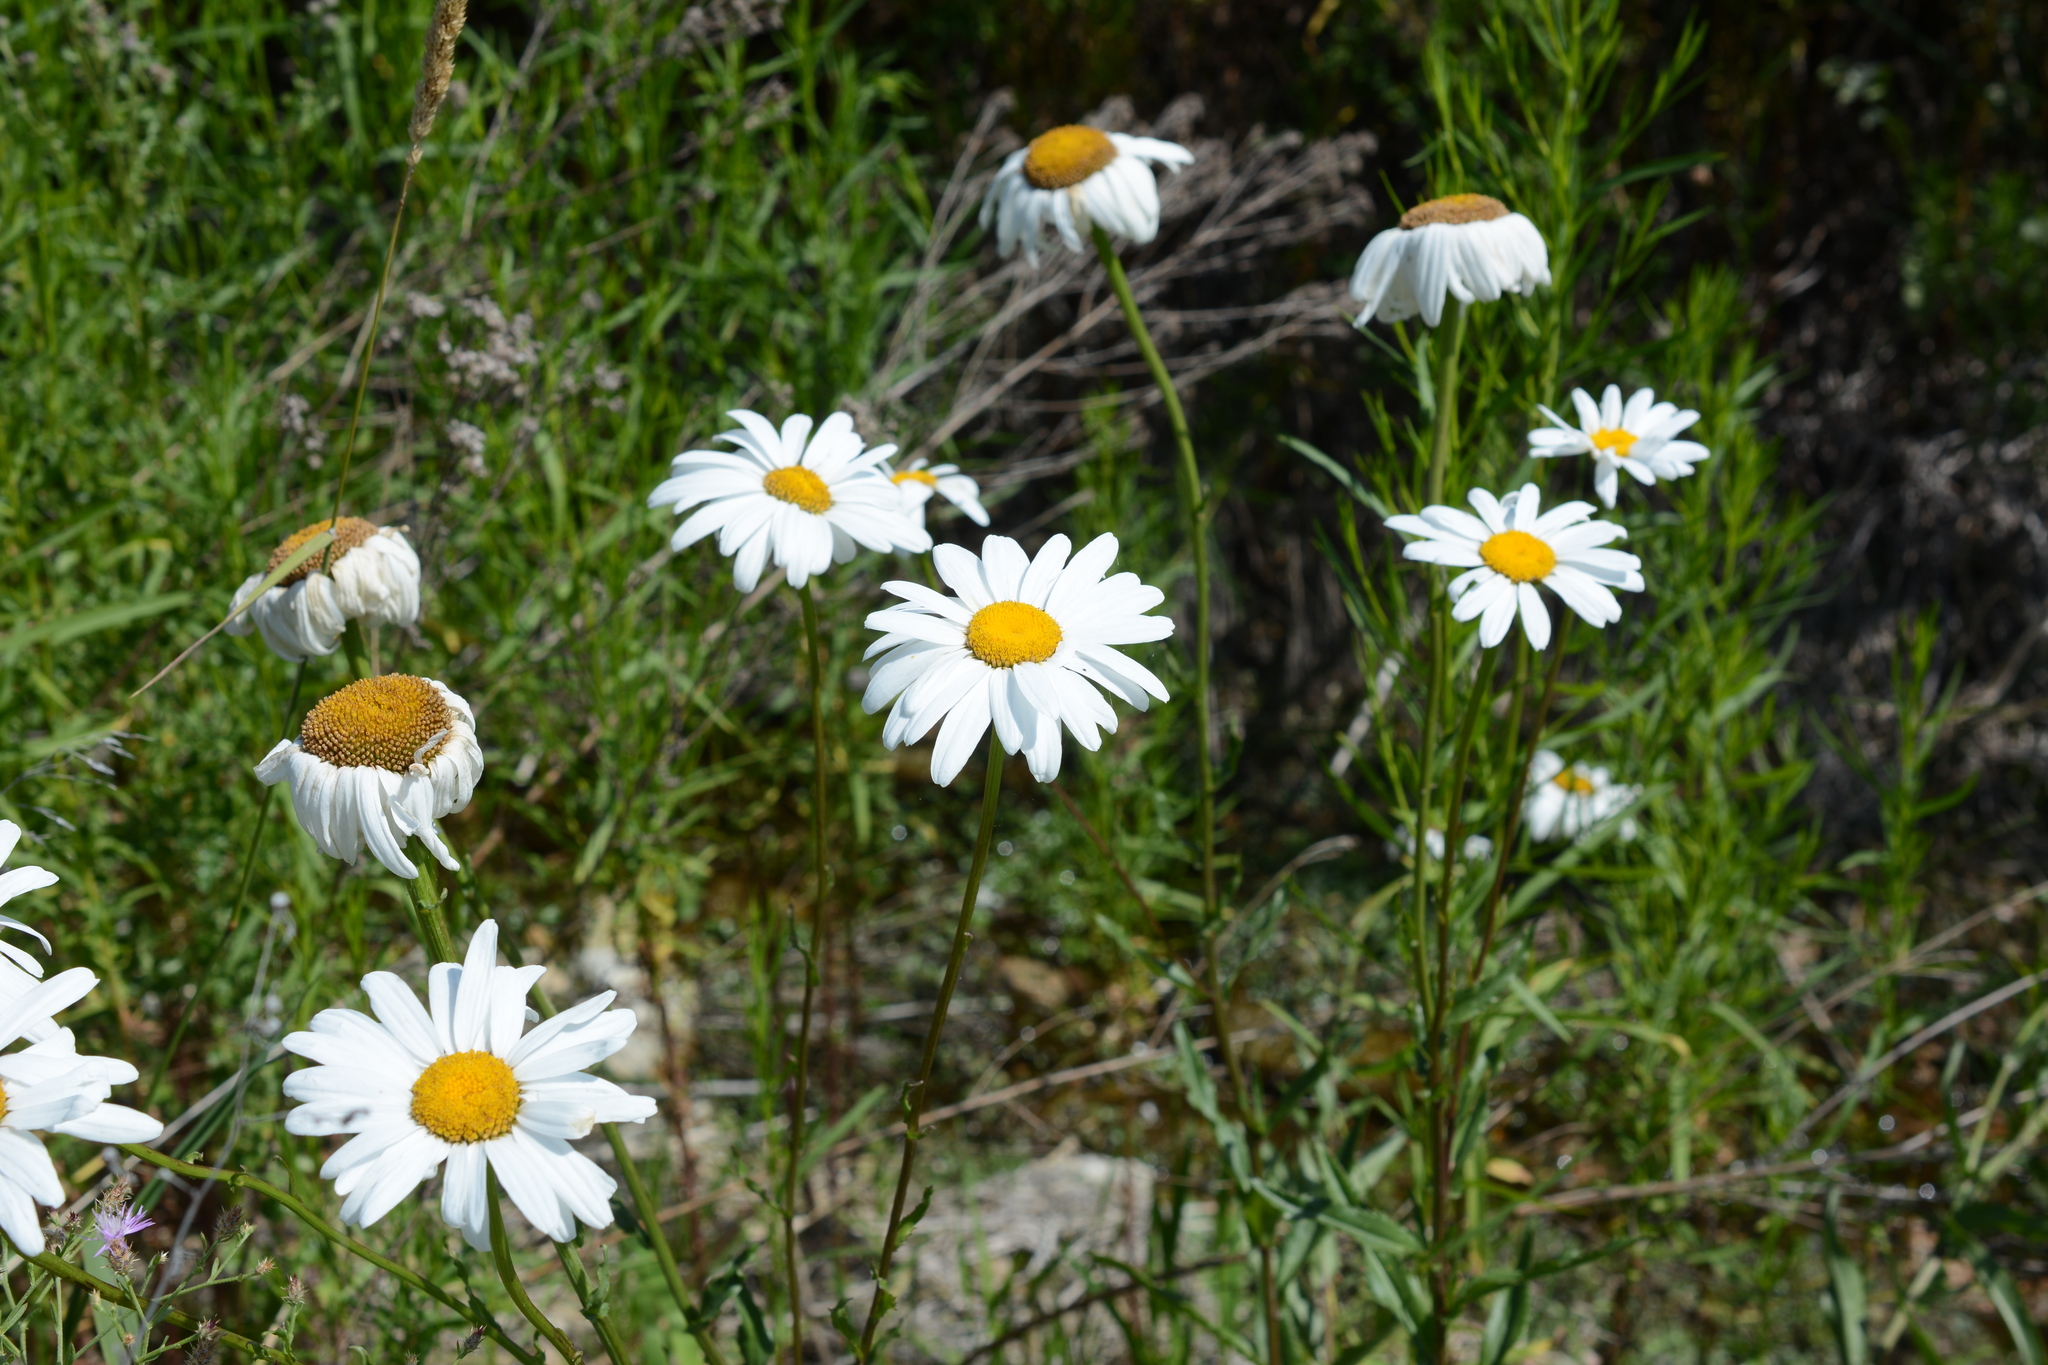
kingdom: Plantae
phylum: Tracheophyta
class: Magnoliopsida
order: Asterales
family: Asteraceae
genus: Leucanthemum
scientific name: Leucanthemum vulgare
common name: Oxeye daisy
